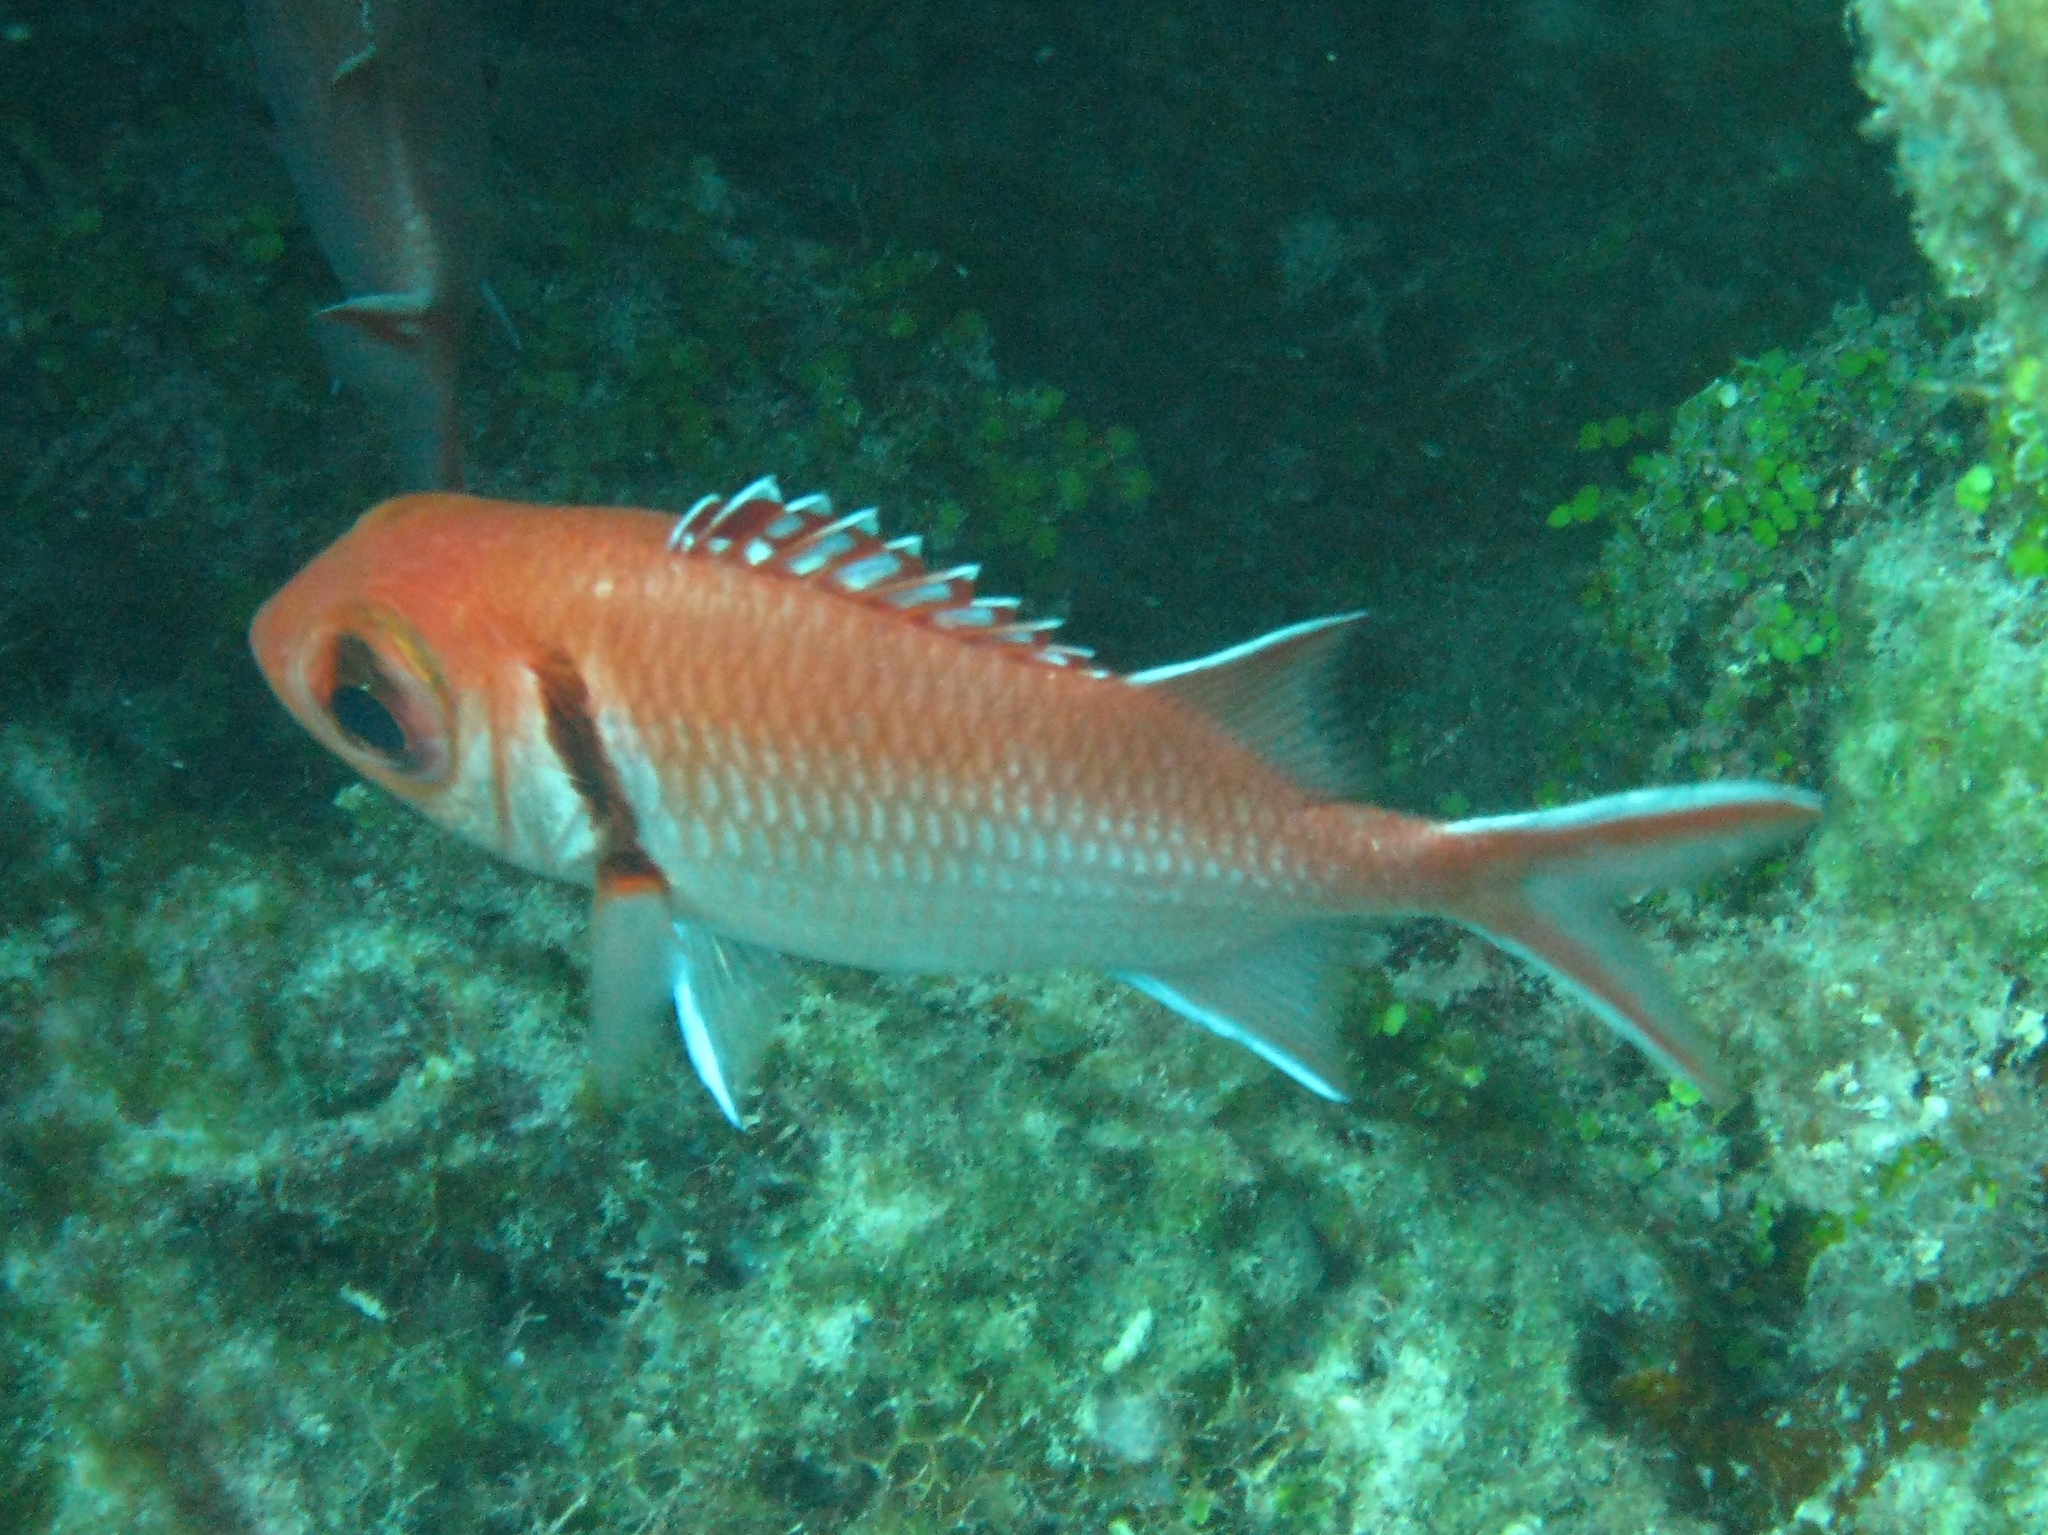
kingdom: Animalia
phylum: Chordata
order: Beryciformes
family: Holocentridae
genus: Myripristis
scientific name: Myripristis jacobus
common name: Blackbar soldierfish
